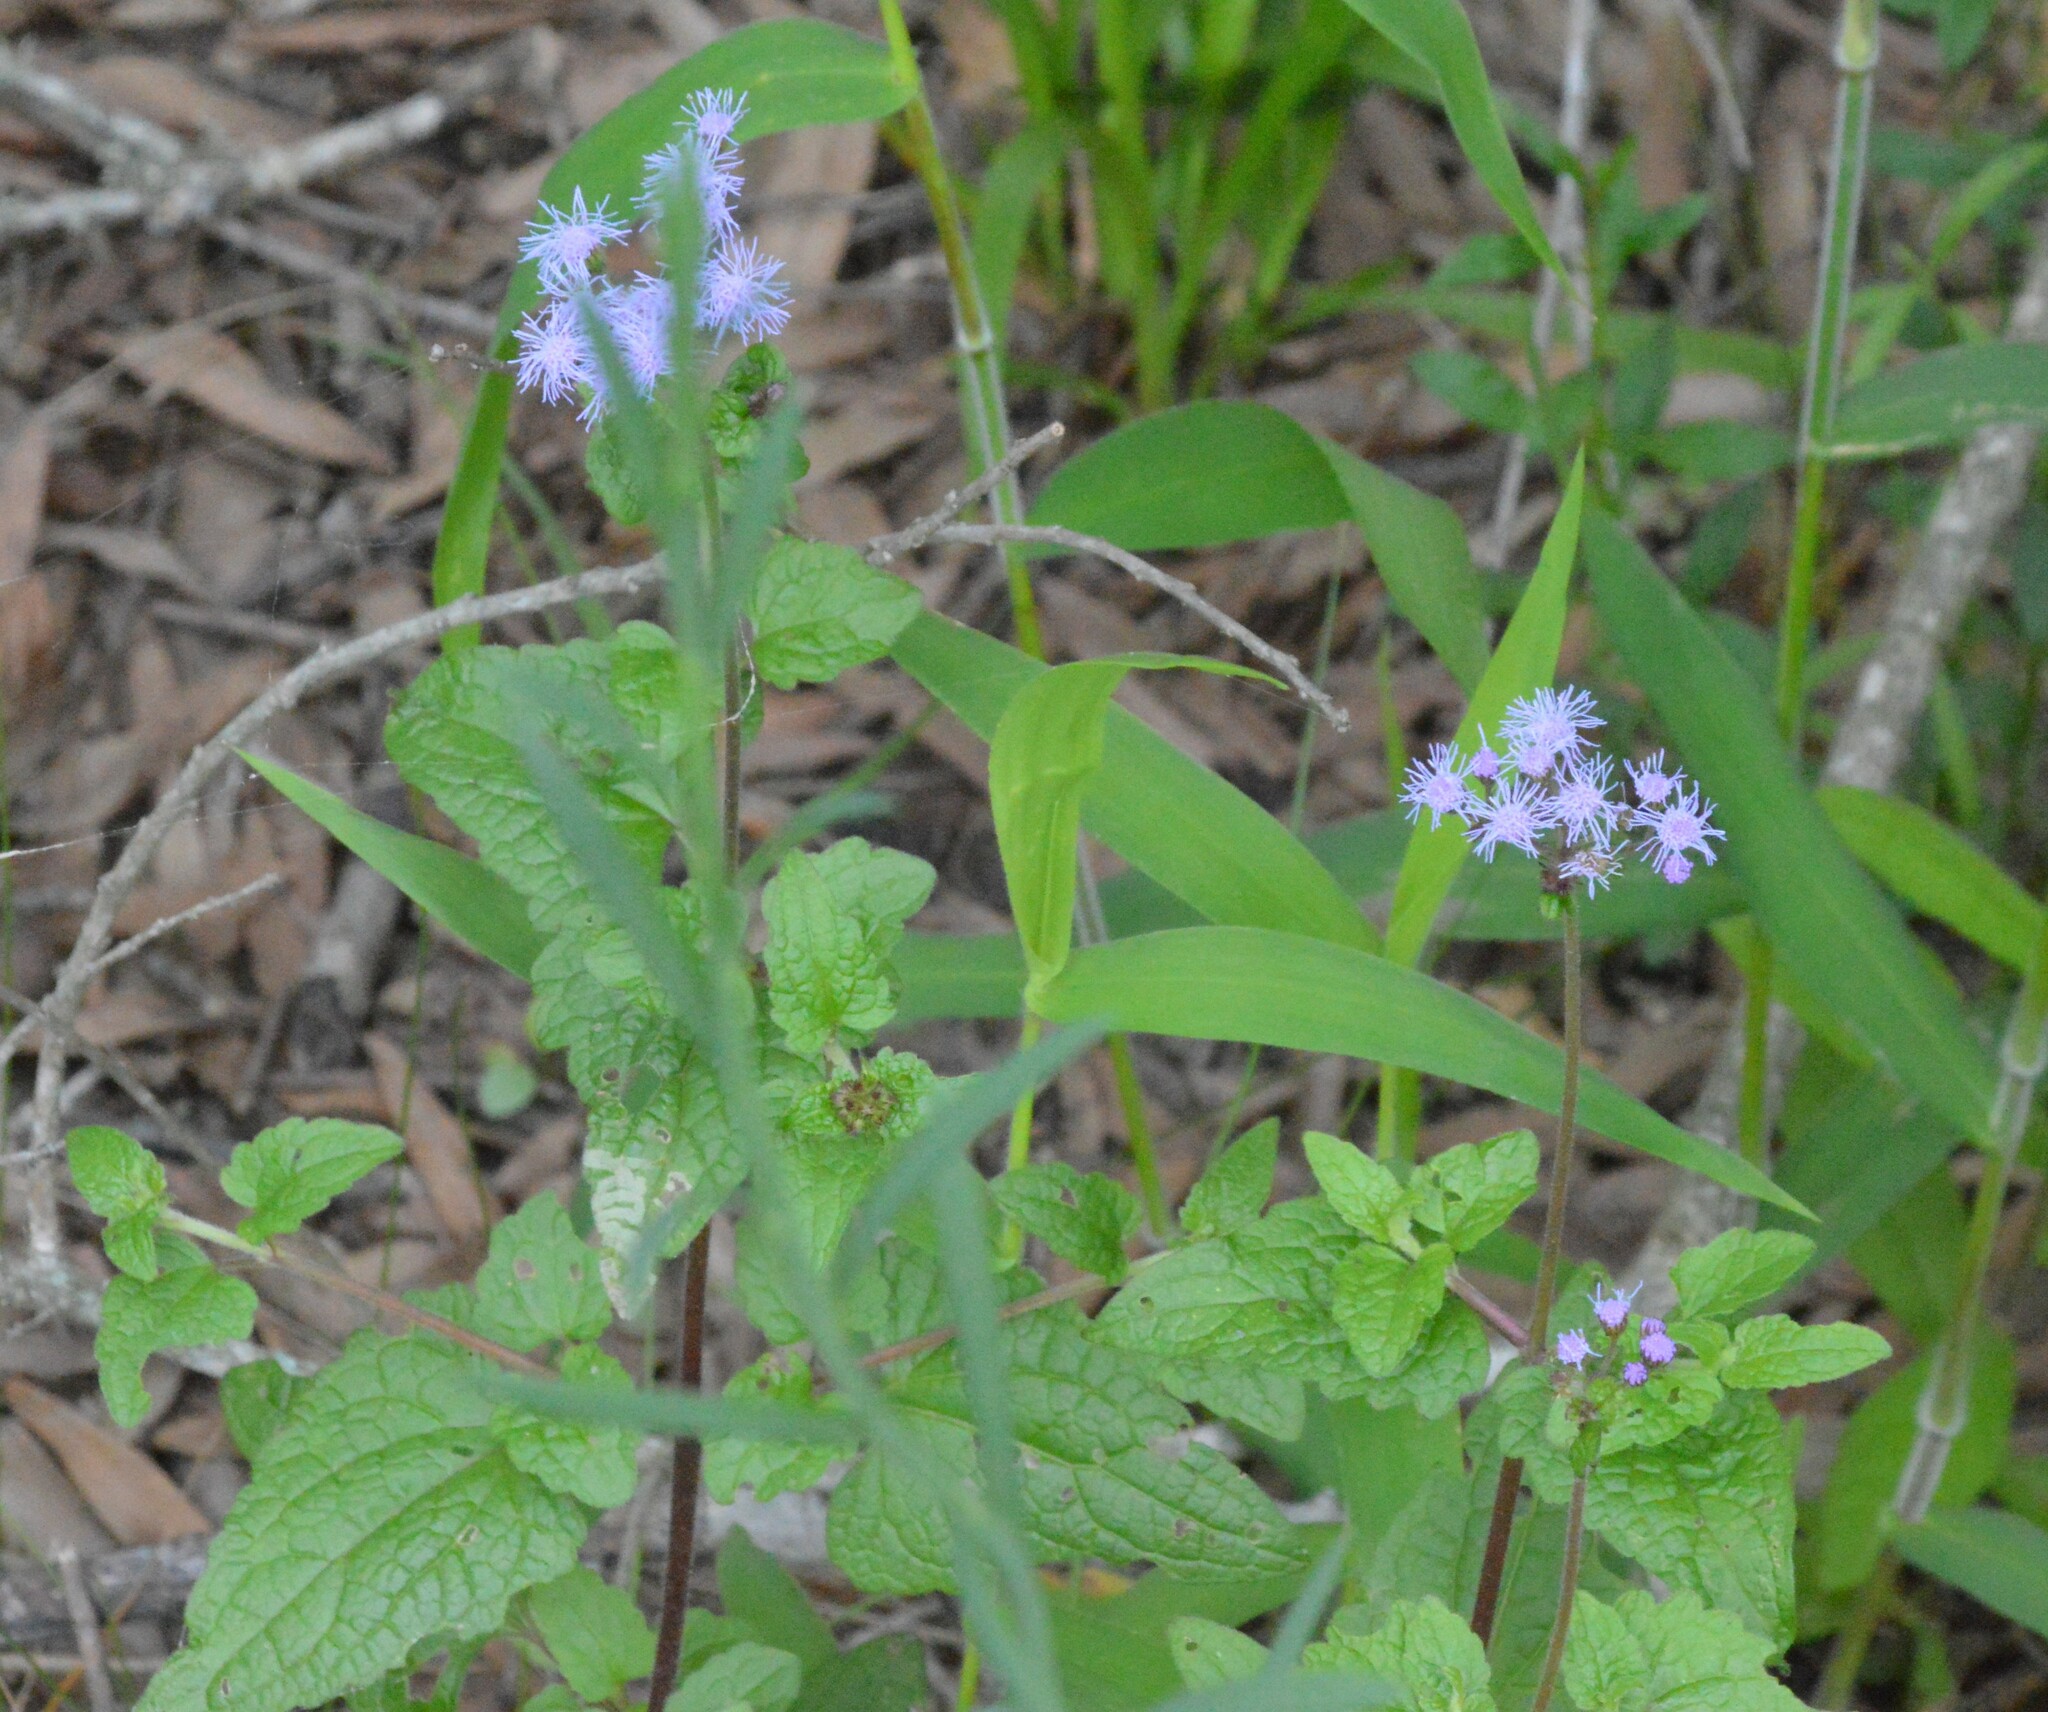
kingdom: Plantae
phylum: Tracheophyta
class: Magnoliopsida
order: Asterales
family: Asteraceae
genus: Conoclinium
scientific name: Conoclinium coelestinum
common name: Blue mistflower
